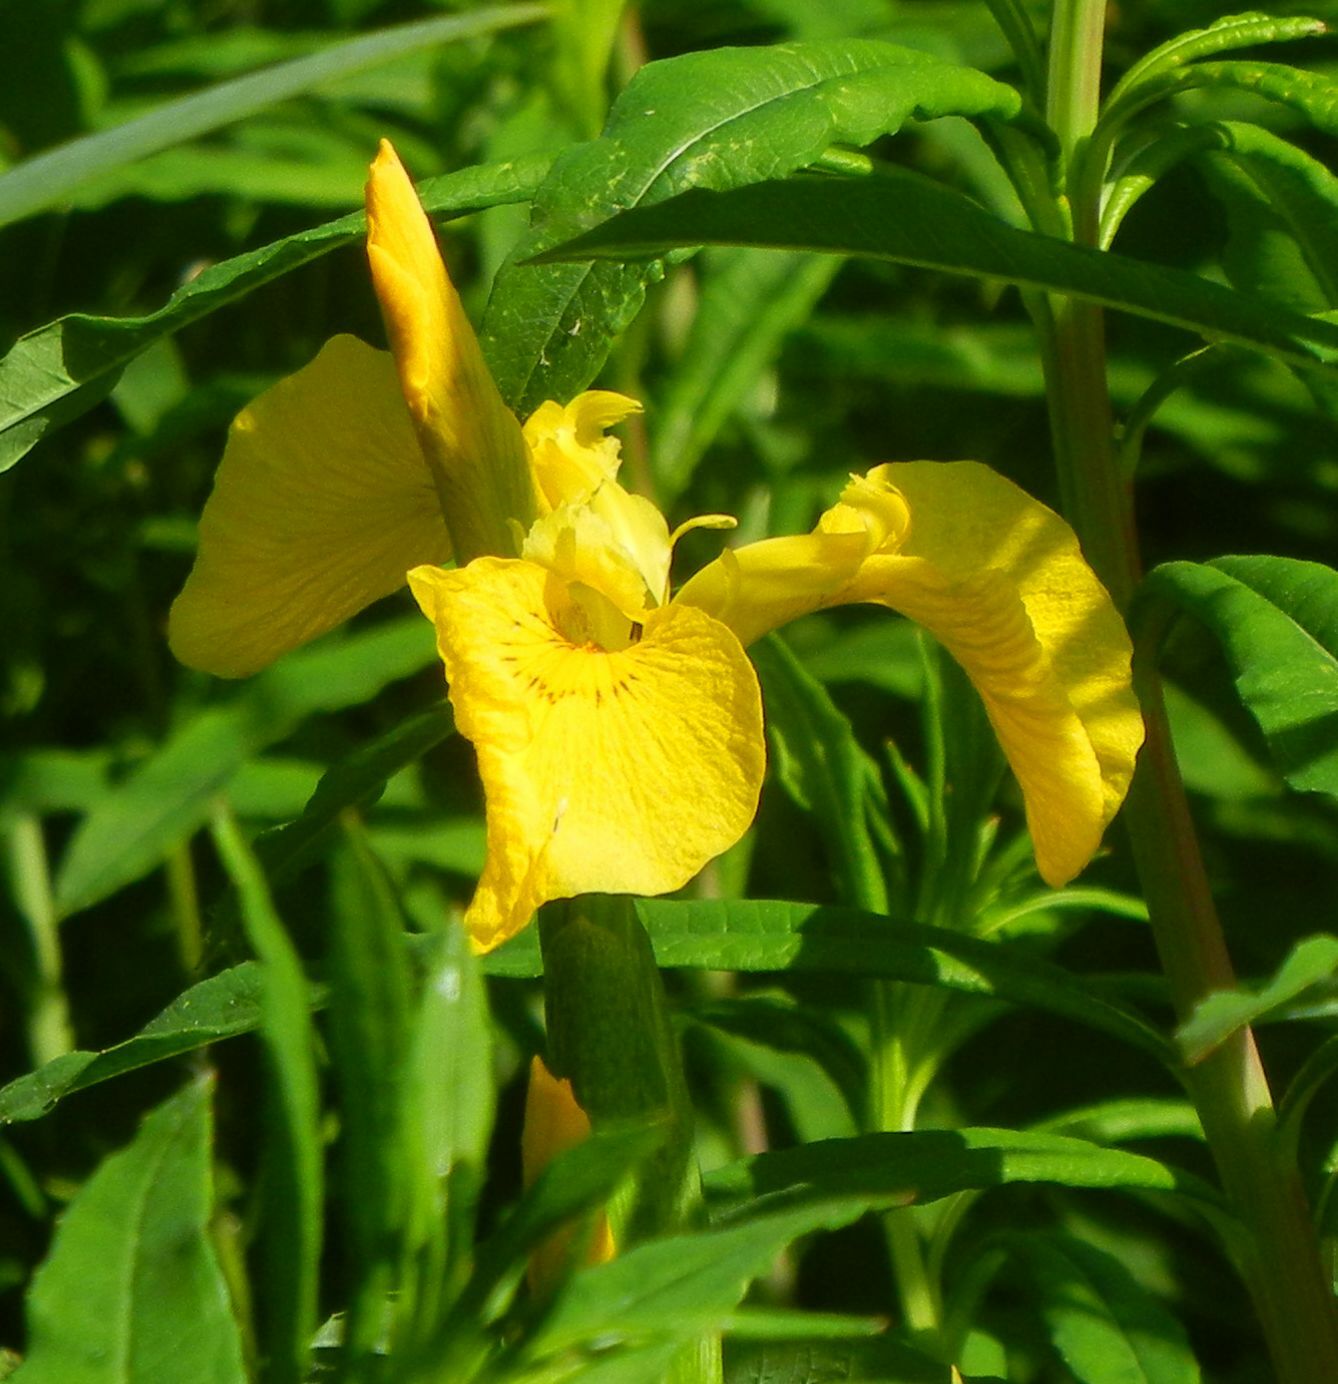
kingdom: Plantae
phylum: Tracheophyta
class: Liliopsida
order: Asparagales
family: Iridaceae
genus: Iris
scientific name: Iris pseudacorus
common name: Yellow flag
